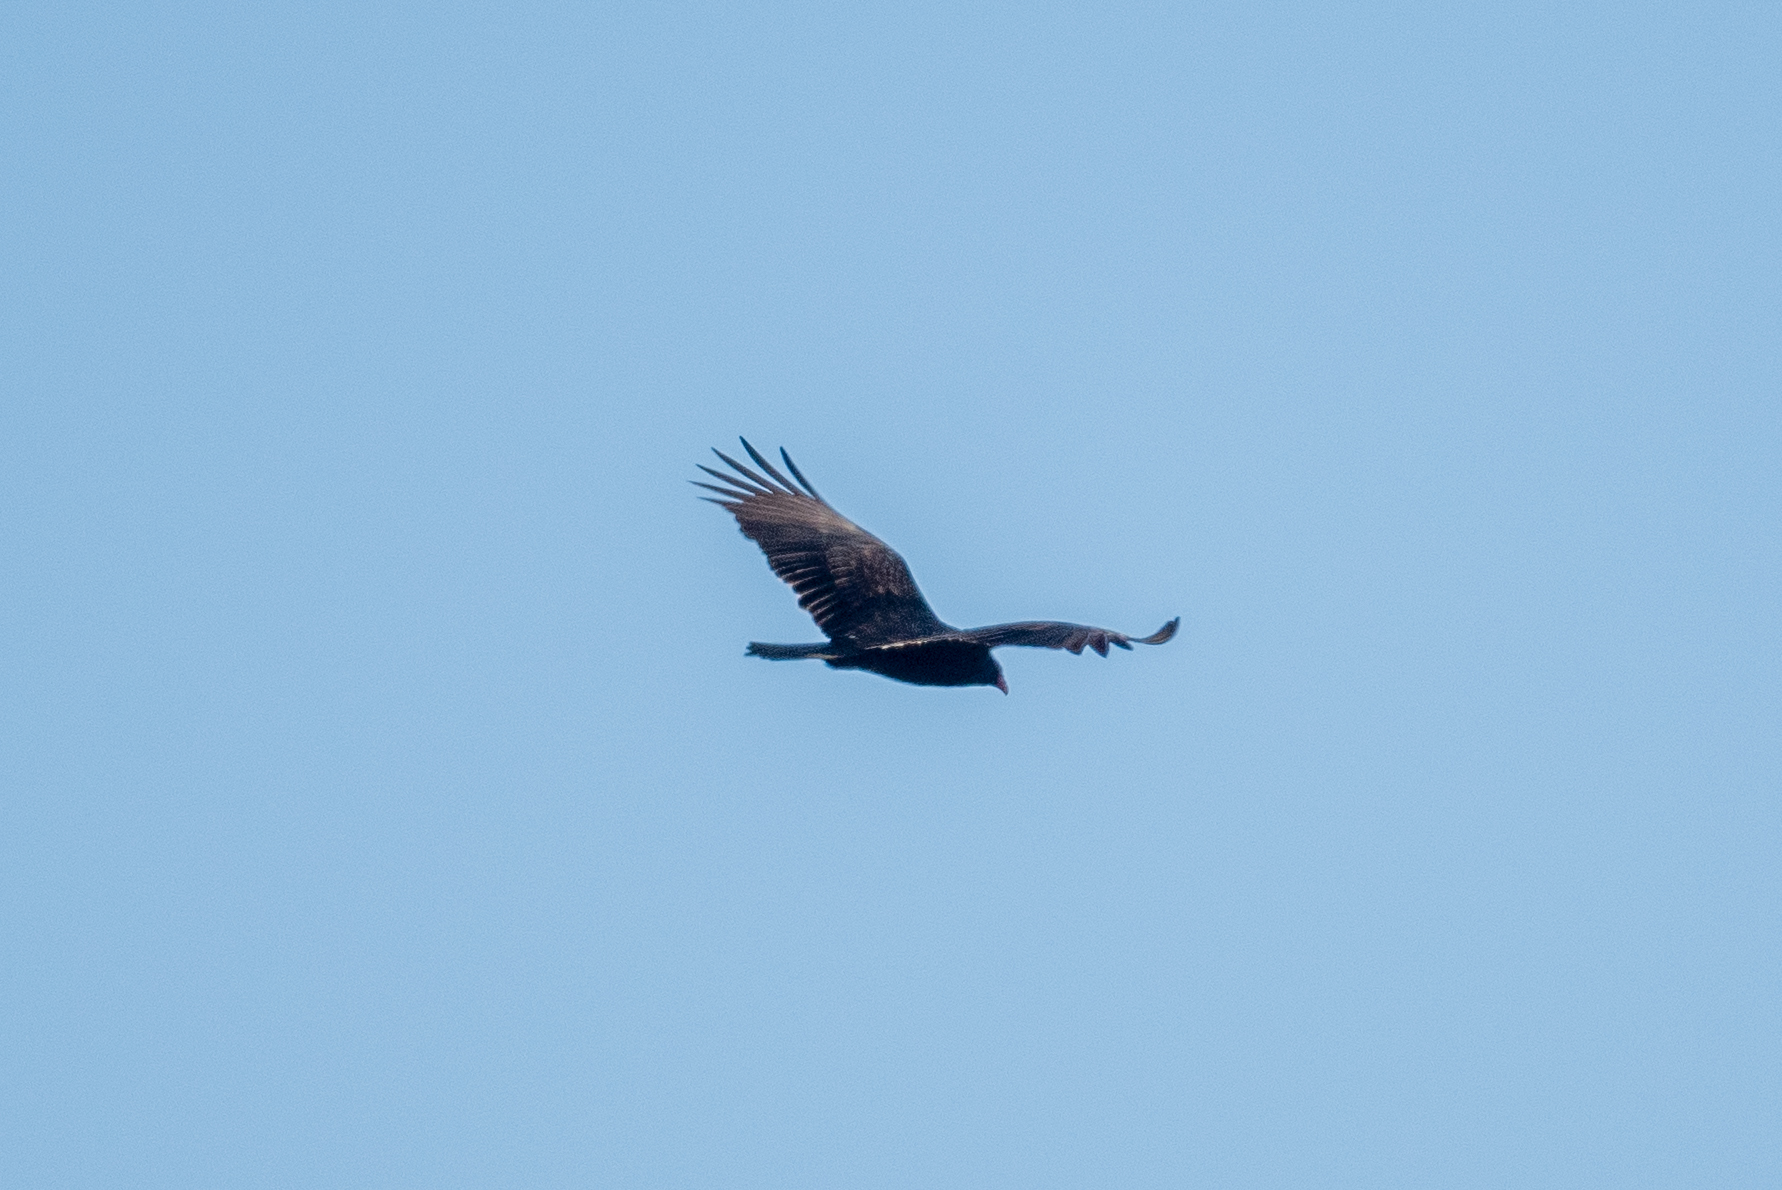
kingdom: Animalia
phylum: Chordata
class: Aves
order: Accipitriformes
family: Cathartidae
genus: Cathartes
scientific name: Cathartes aura
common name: Turkey vulture
